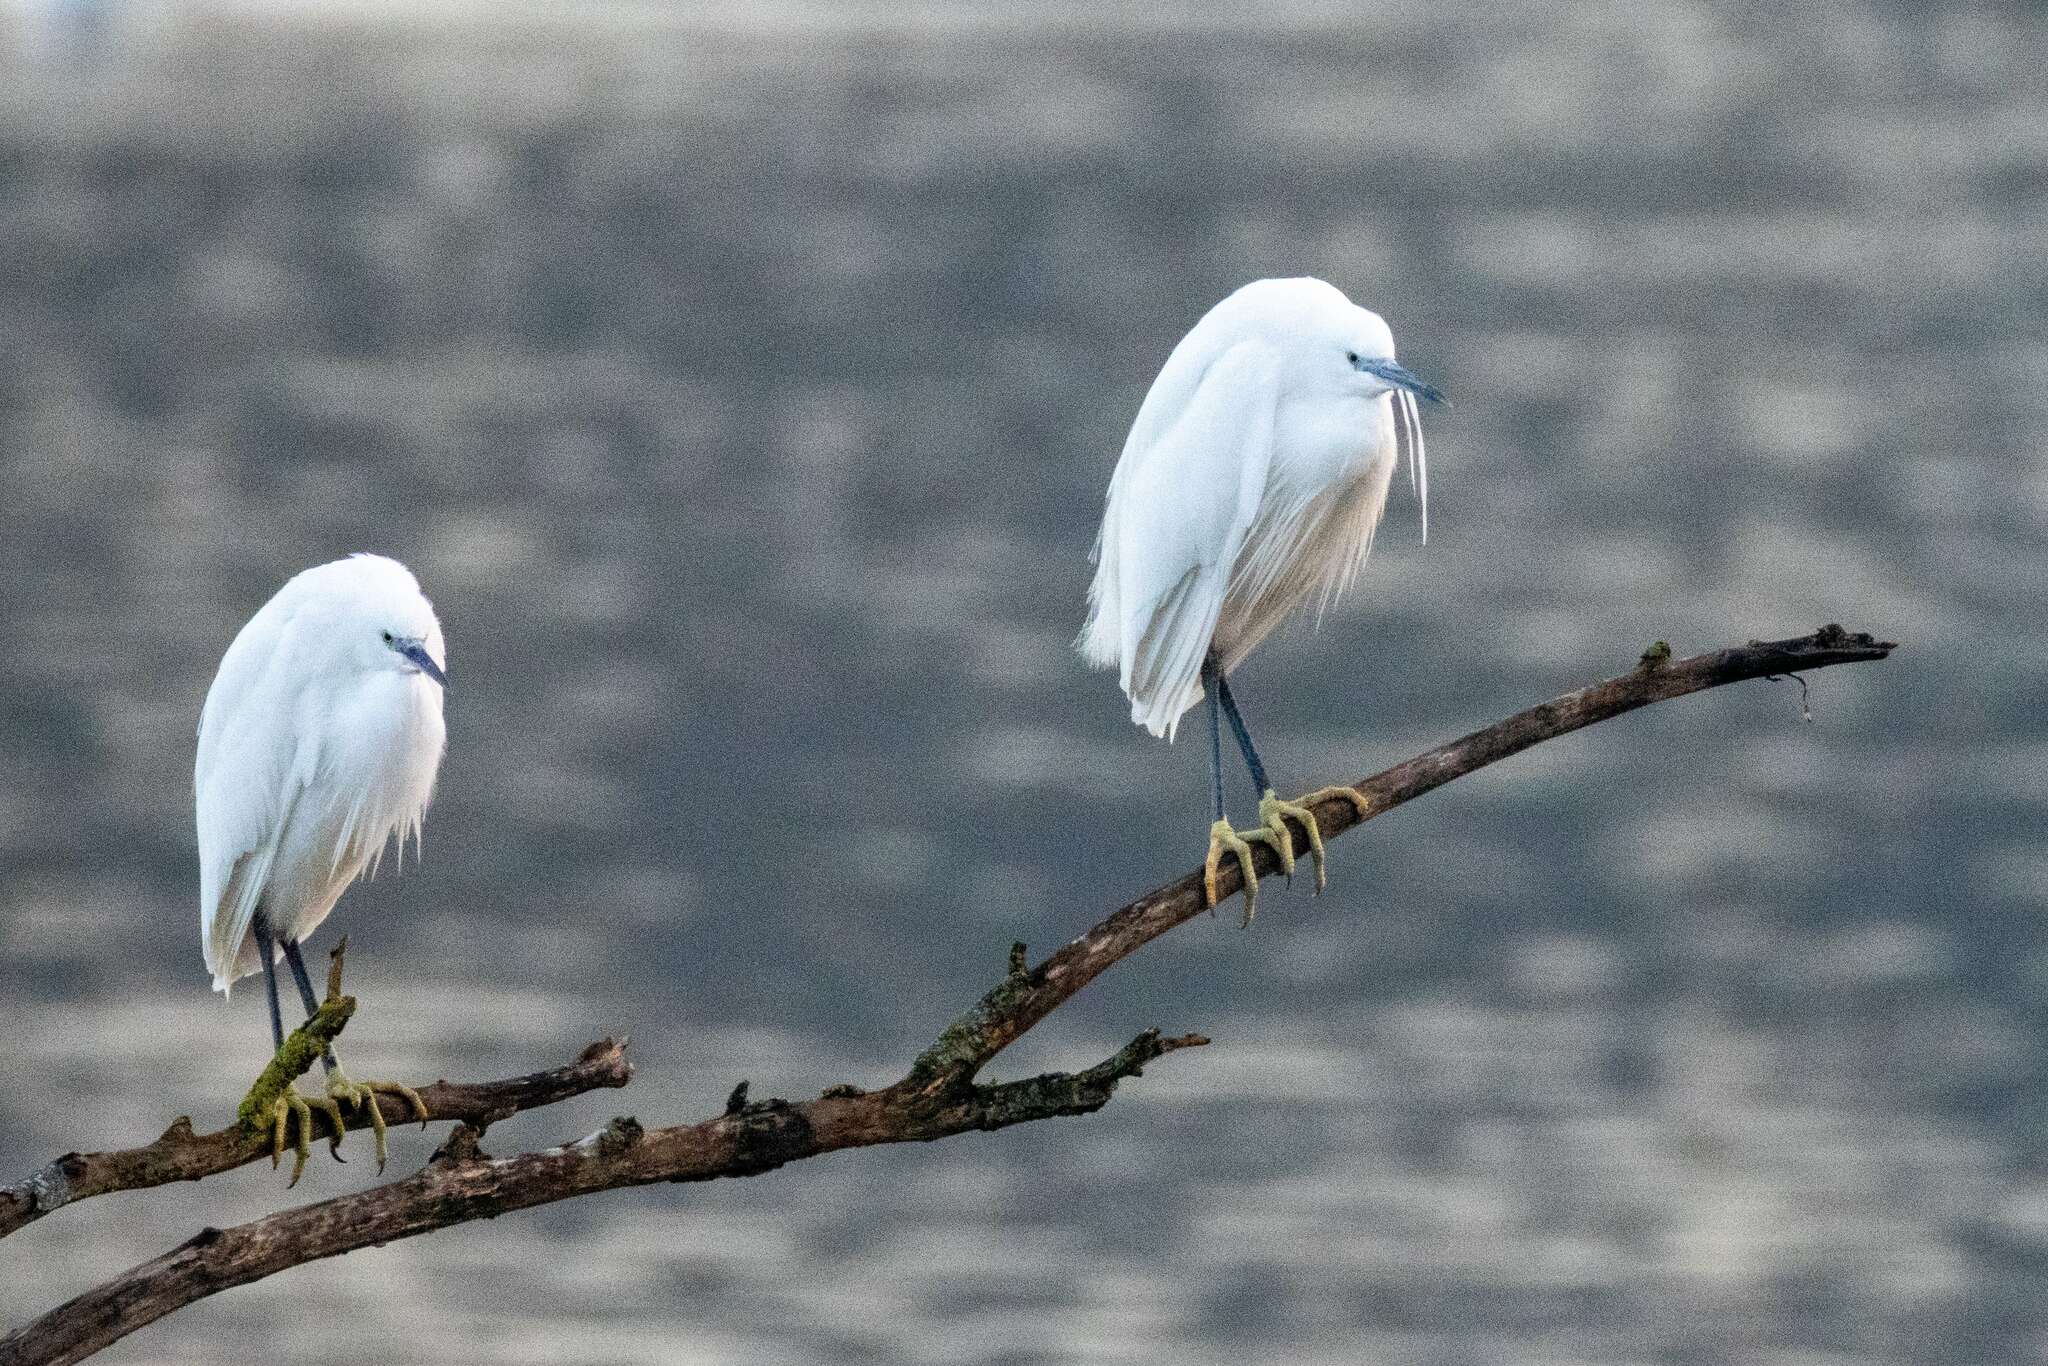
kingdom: Animalia
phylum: Chordata
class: Aves
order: Pelecaniformes
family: Ardeidae
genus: Egretta
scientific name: Egretta garzetta
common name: Little egret
